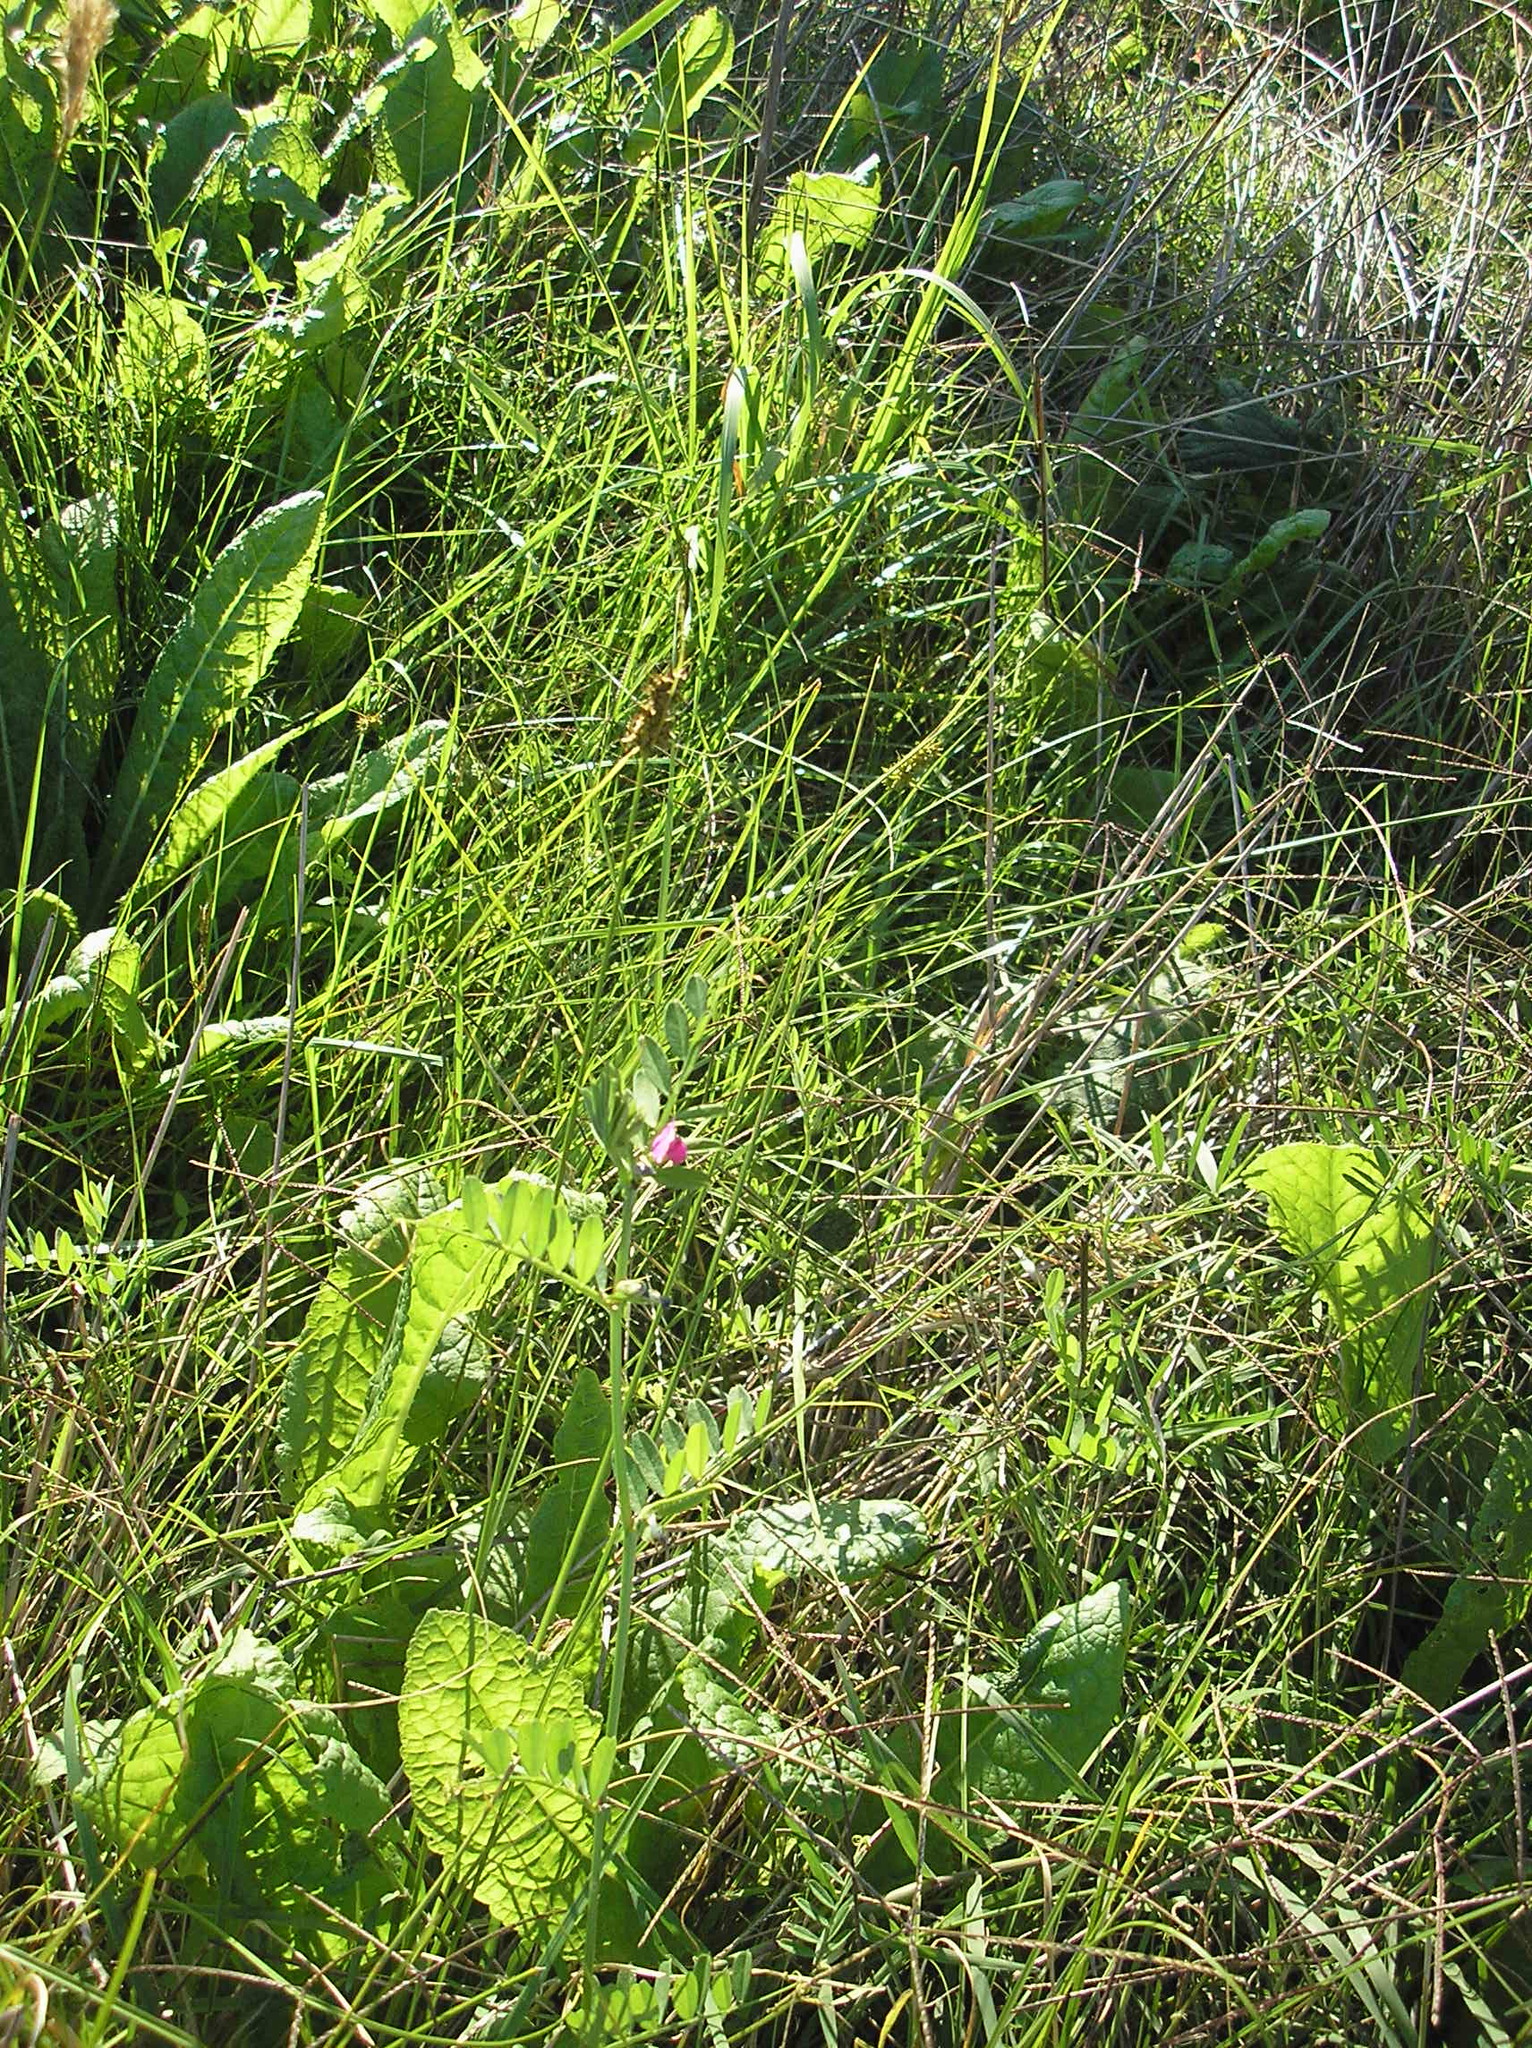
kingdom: Plantae
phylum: Tracheophyta
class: Magnoliopsida
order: Fabales
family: Fabaceae
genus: Vicia
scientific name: Vicia sativa
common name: Garden vetch
